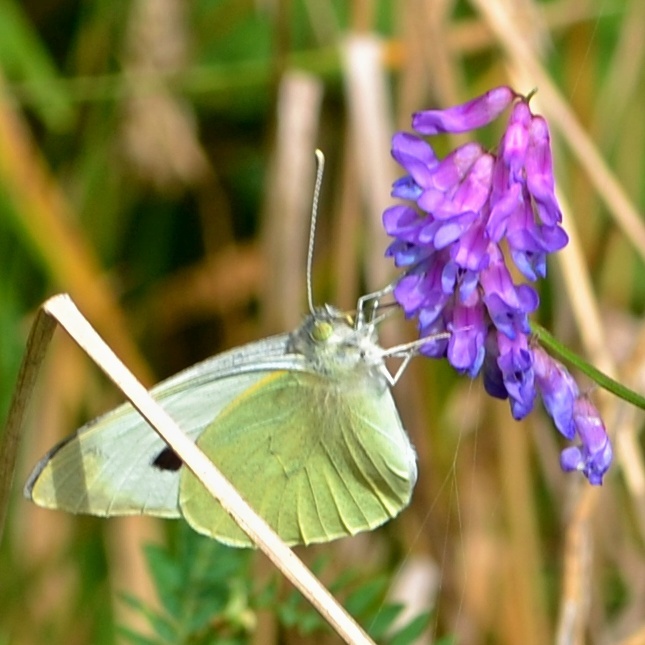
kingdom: Animalia
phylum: Arthropoda
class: Insecta
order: Lepidoptera
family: Pieridae
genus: Pieris
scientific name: Pieris brassicae
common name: Large white
